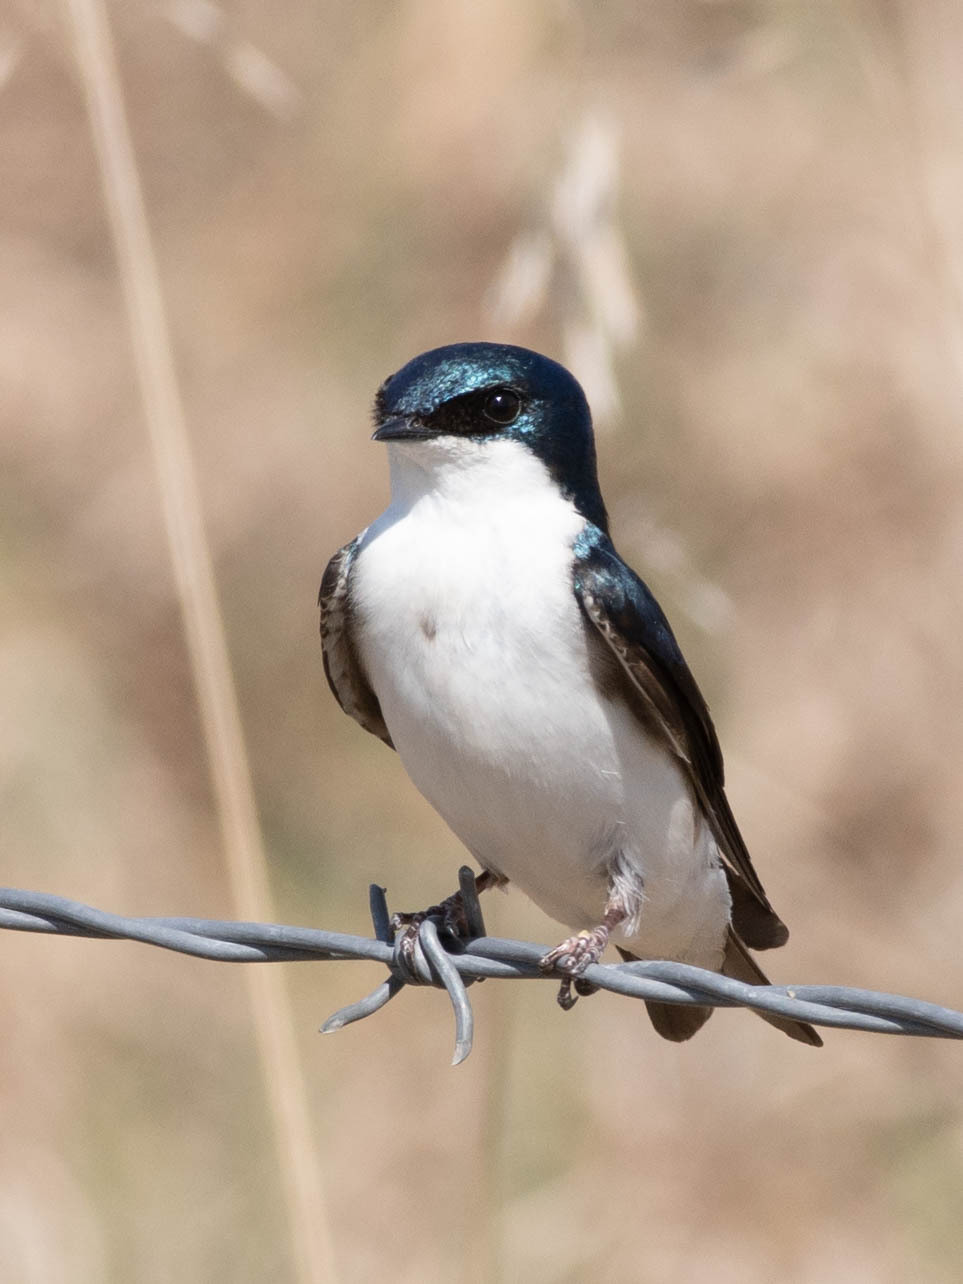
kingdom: Animalia
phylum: Chordata
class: Aves
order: Passeriformes
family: Hirundinidae
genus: Tachycineta
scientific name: Tachycineta bicolor
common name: Tree swallow
